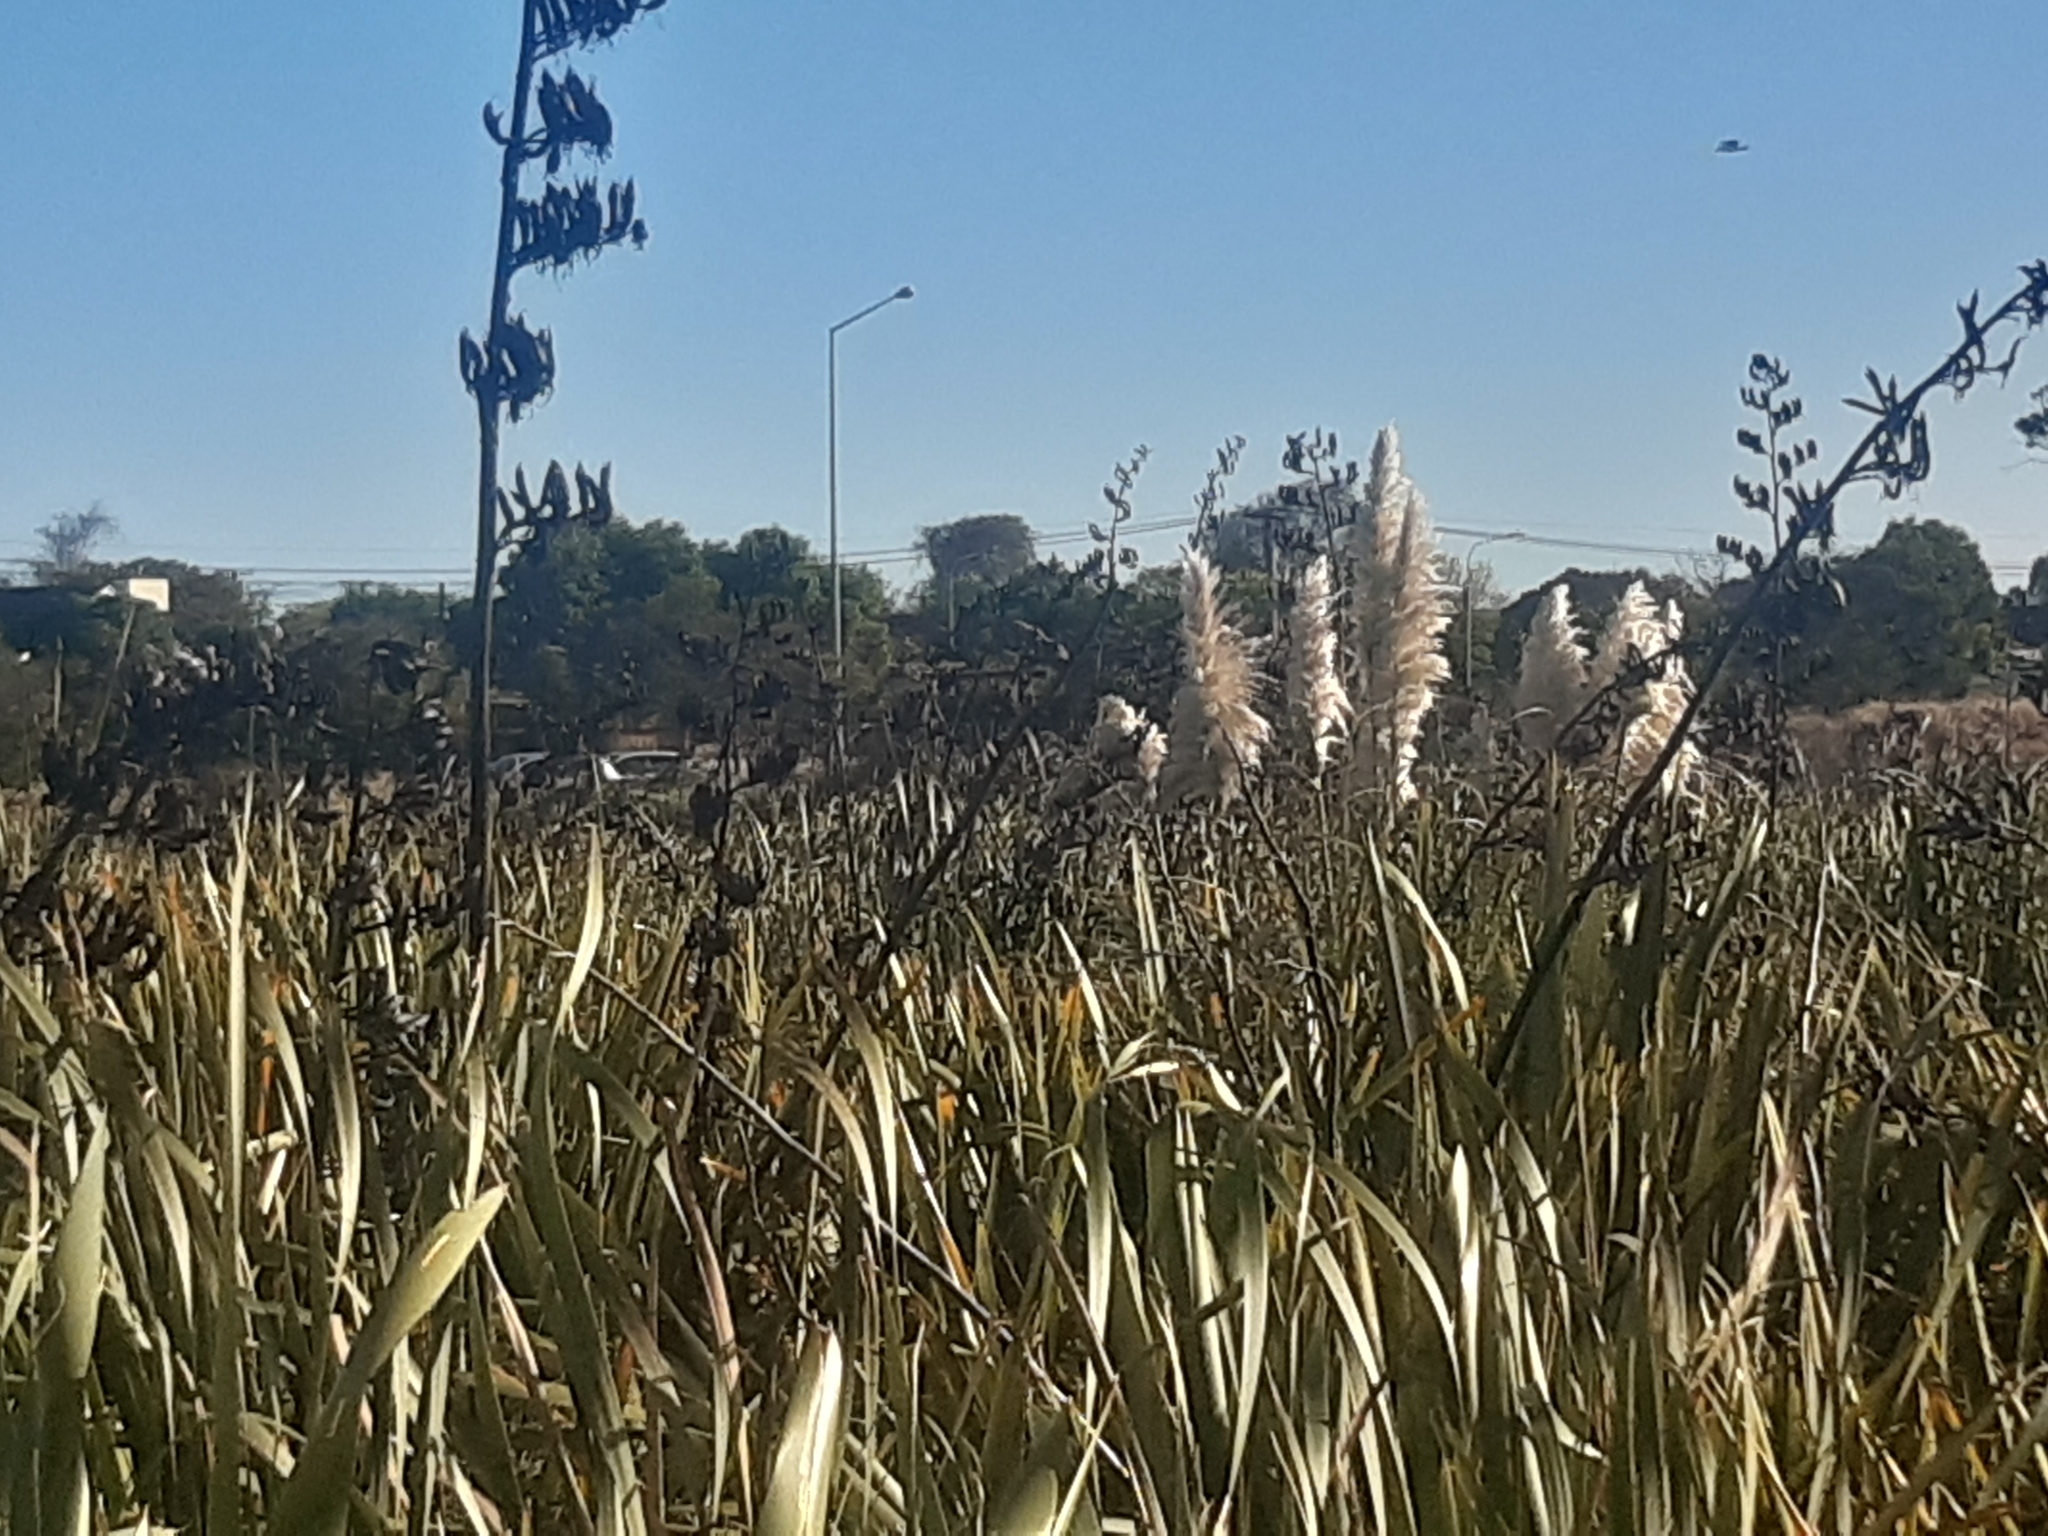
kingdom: Plantae
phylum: Tracheophyta
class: Liliopsida
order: Poales
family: Poaceae
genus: Cortaderia
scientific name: Cortaderia selloana
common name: Uruguayan pampas grass
